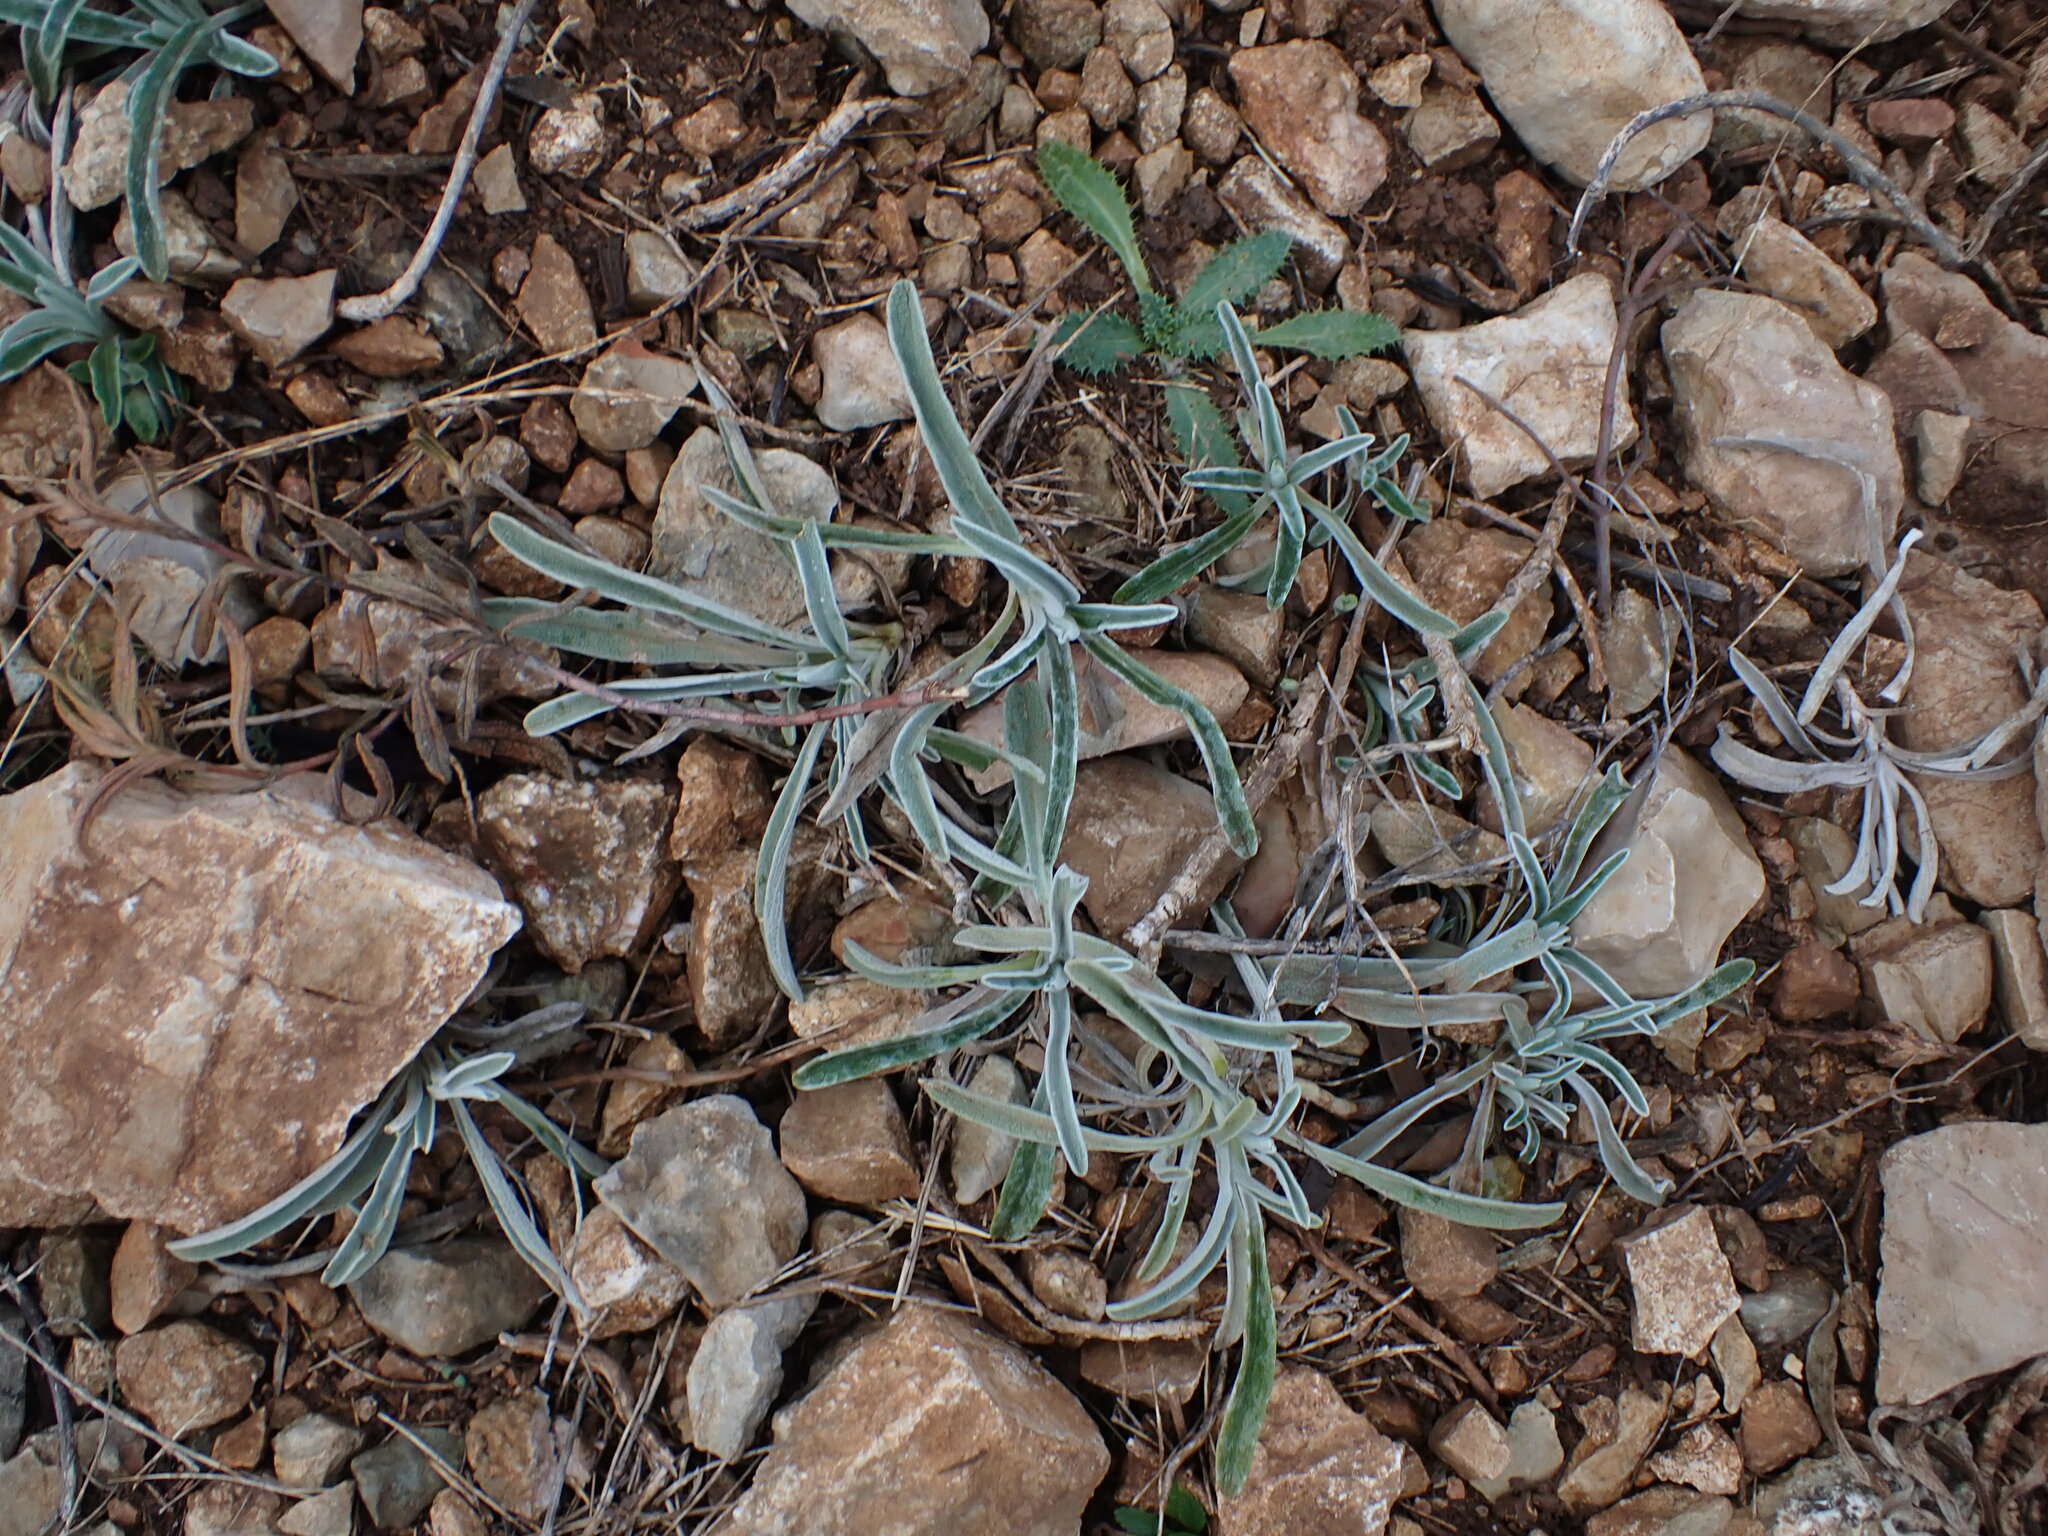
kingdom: Plantae
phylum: Tracheophyta
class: Magnoliopsida
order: Lamiales
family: Lamiaceae
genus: Phlomis
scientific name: Phlomis lychnitis
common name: Lampwickplant
